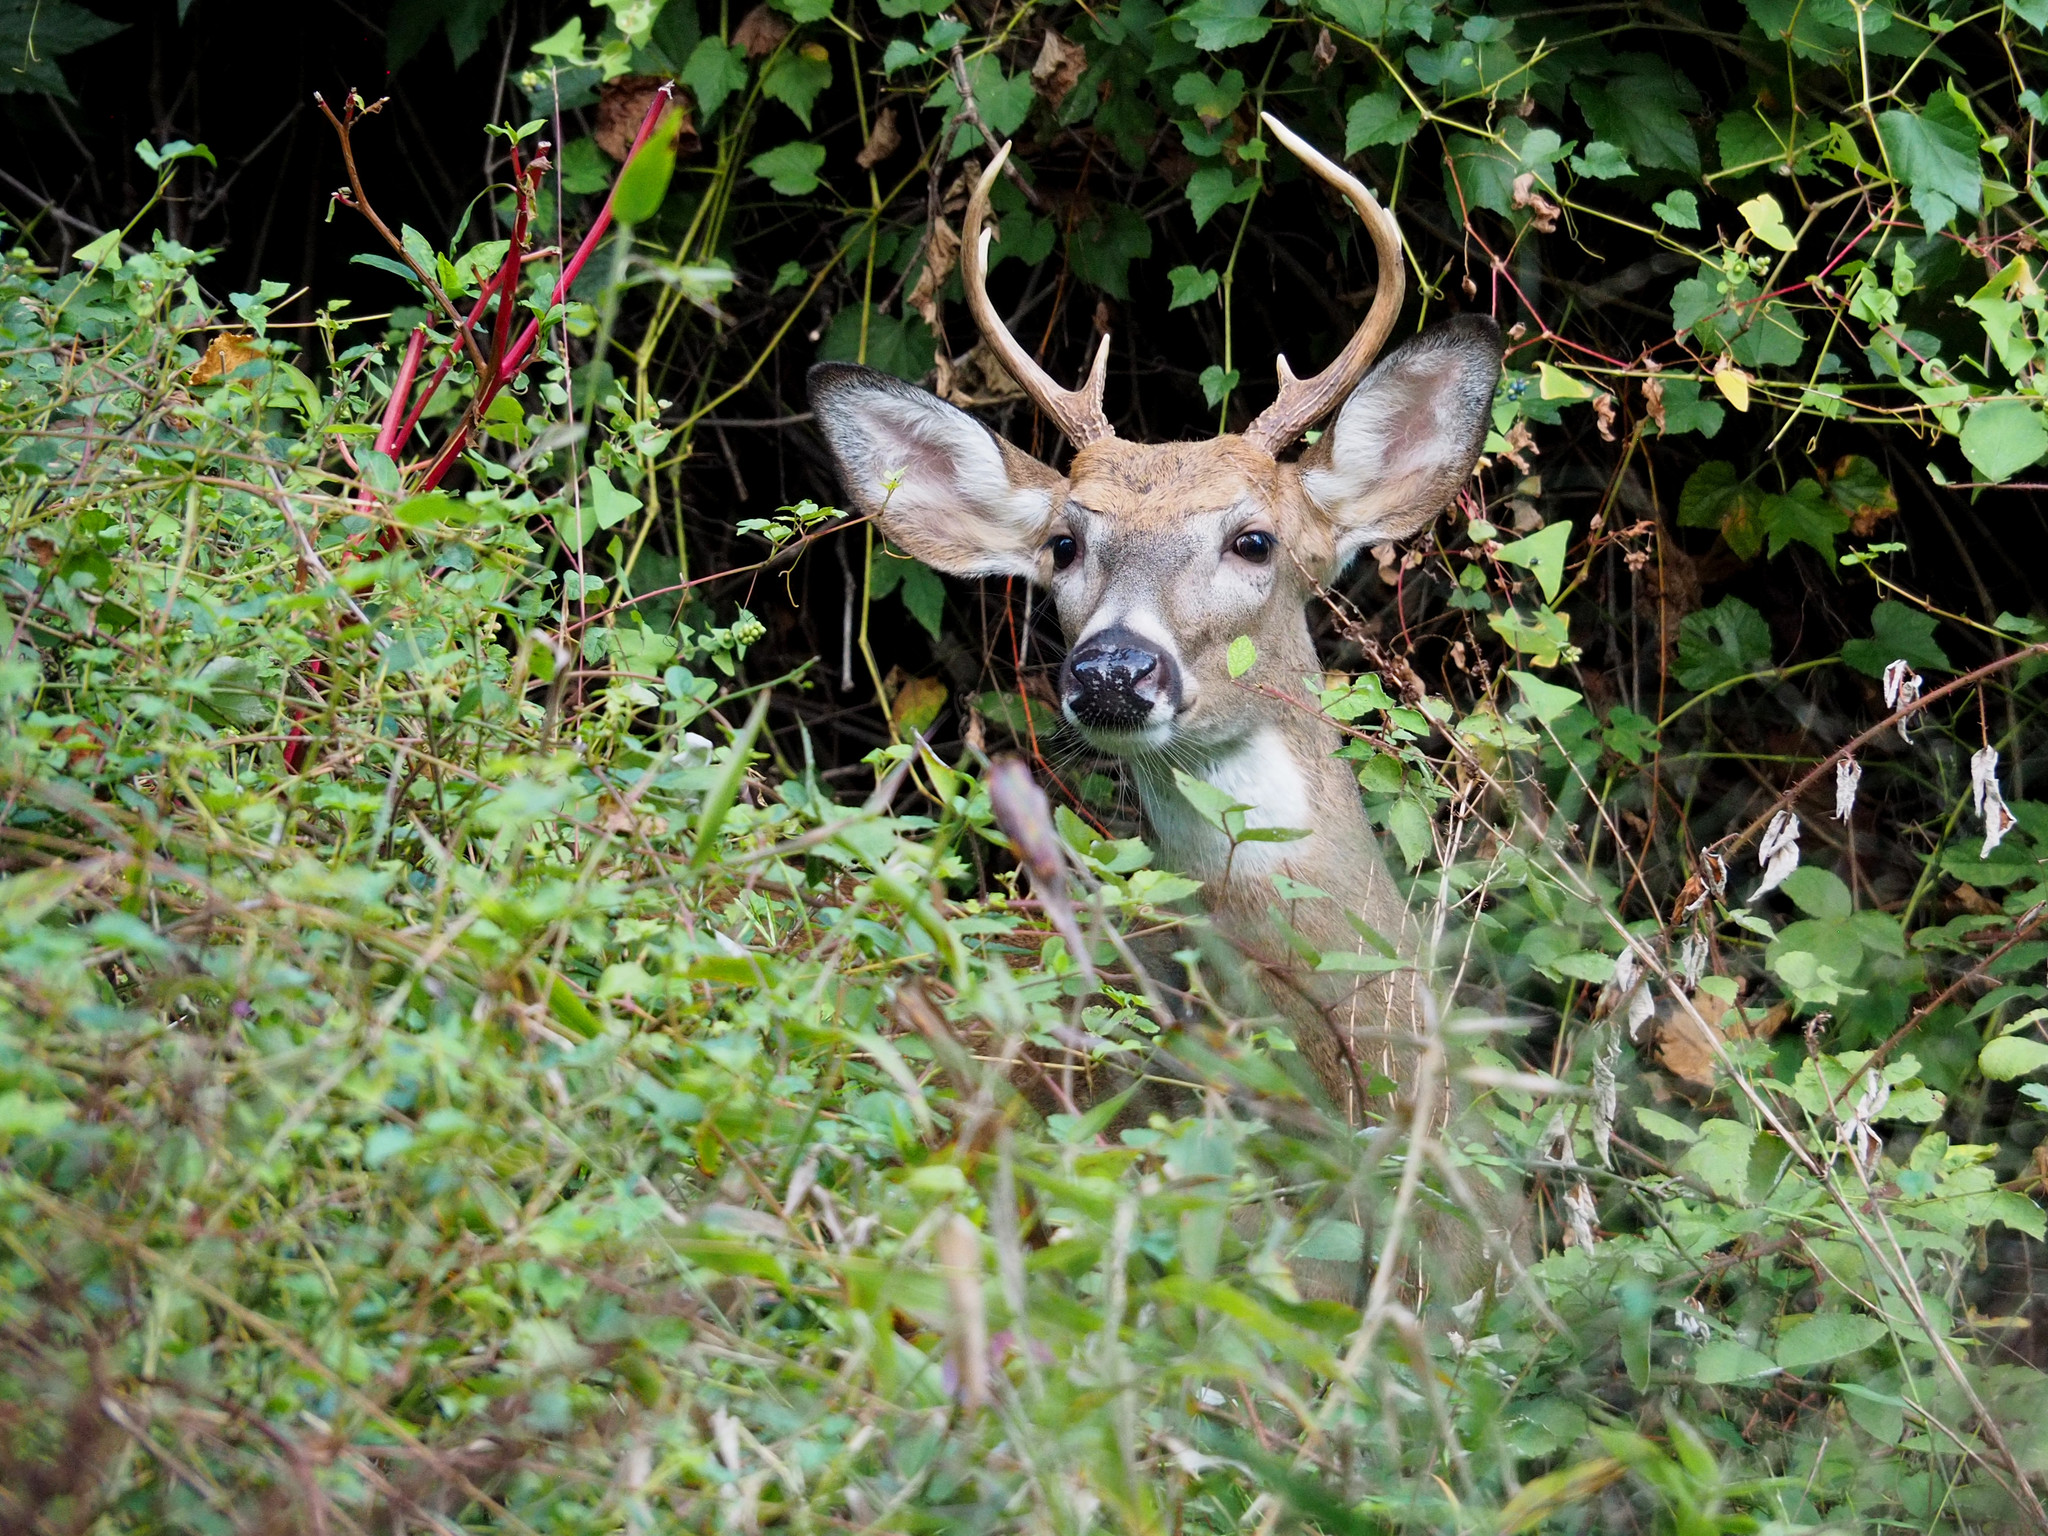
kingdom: Animalia
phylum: Chordata
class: Mammalia
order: Artiodactyla
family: Cervidae
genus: Odocoileus
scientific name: Odocoileus virginianus
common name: White-tailed deer
